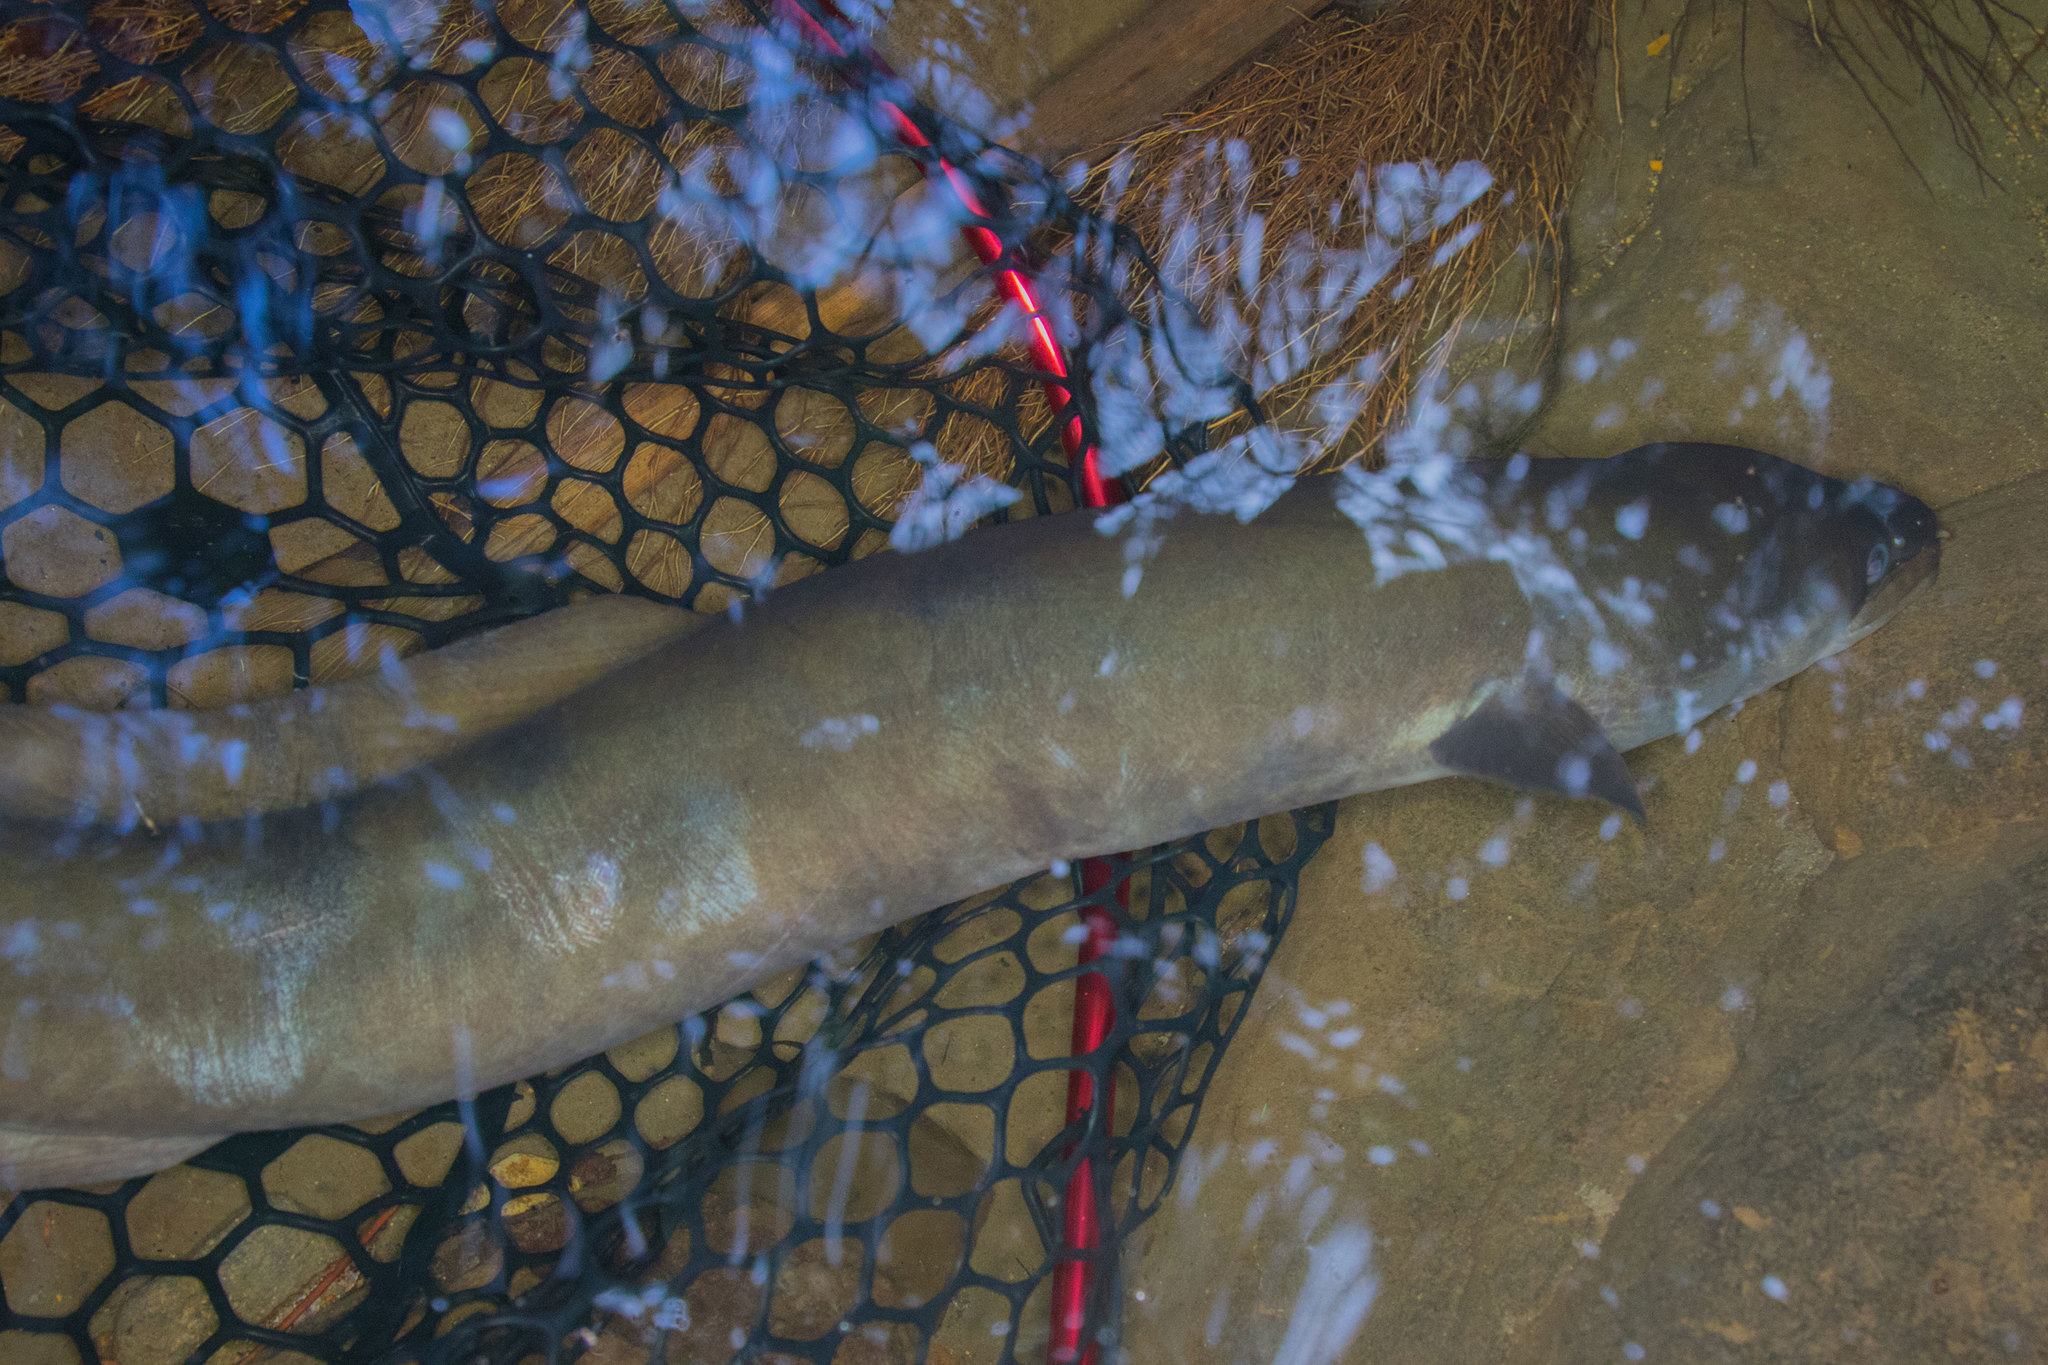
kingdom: Animalia
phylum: Chordata
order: Anguilliformes
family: Anguillidae
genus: Anguilla
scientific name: Anguilla dieffenbachii
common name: New zealand longfin eel
